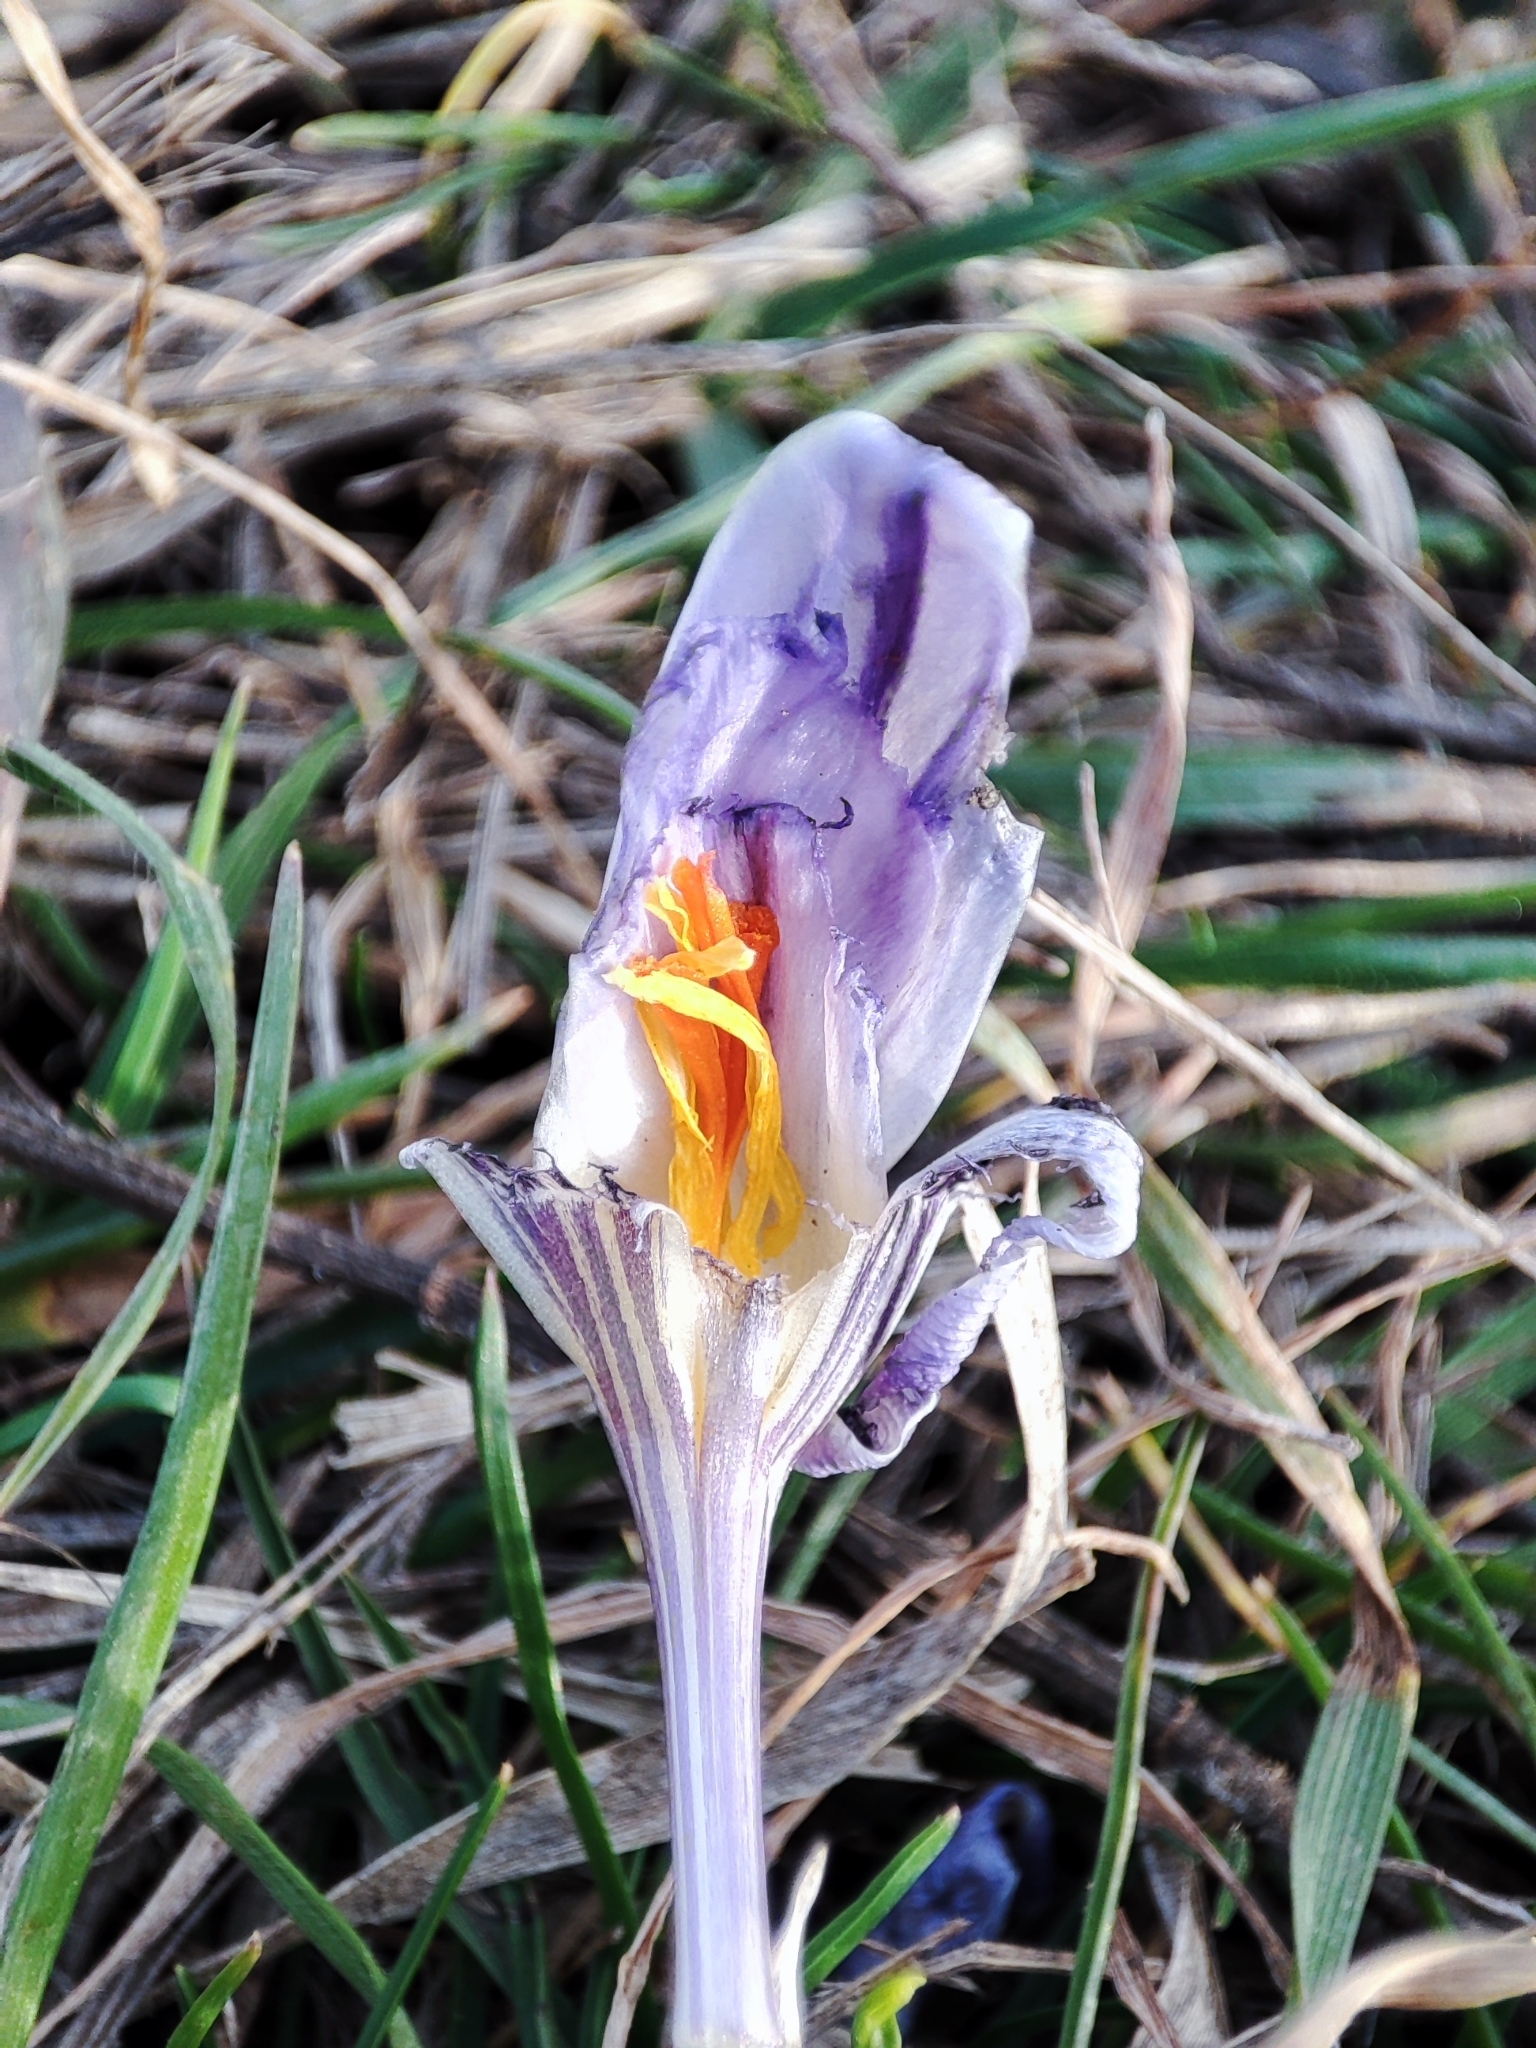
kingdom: Plantae
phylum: Tracheophyta
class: Liliopsida
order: Asparagales
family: Iridaceae
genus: Crocus
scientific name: Crocus reticulatus
